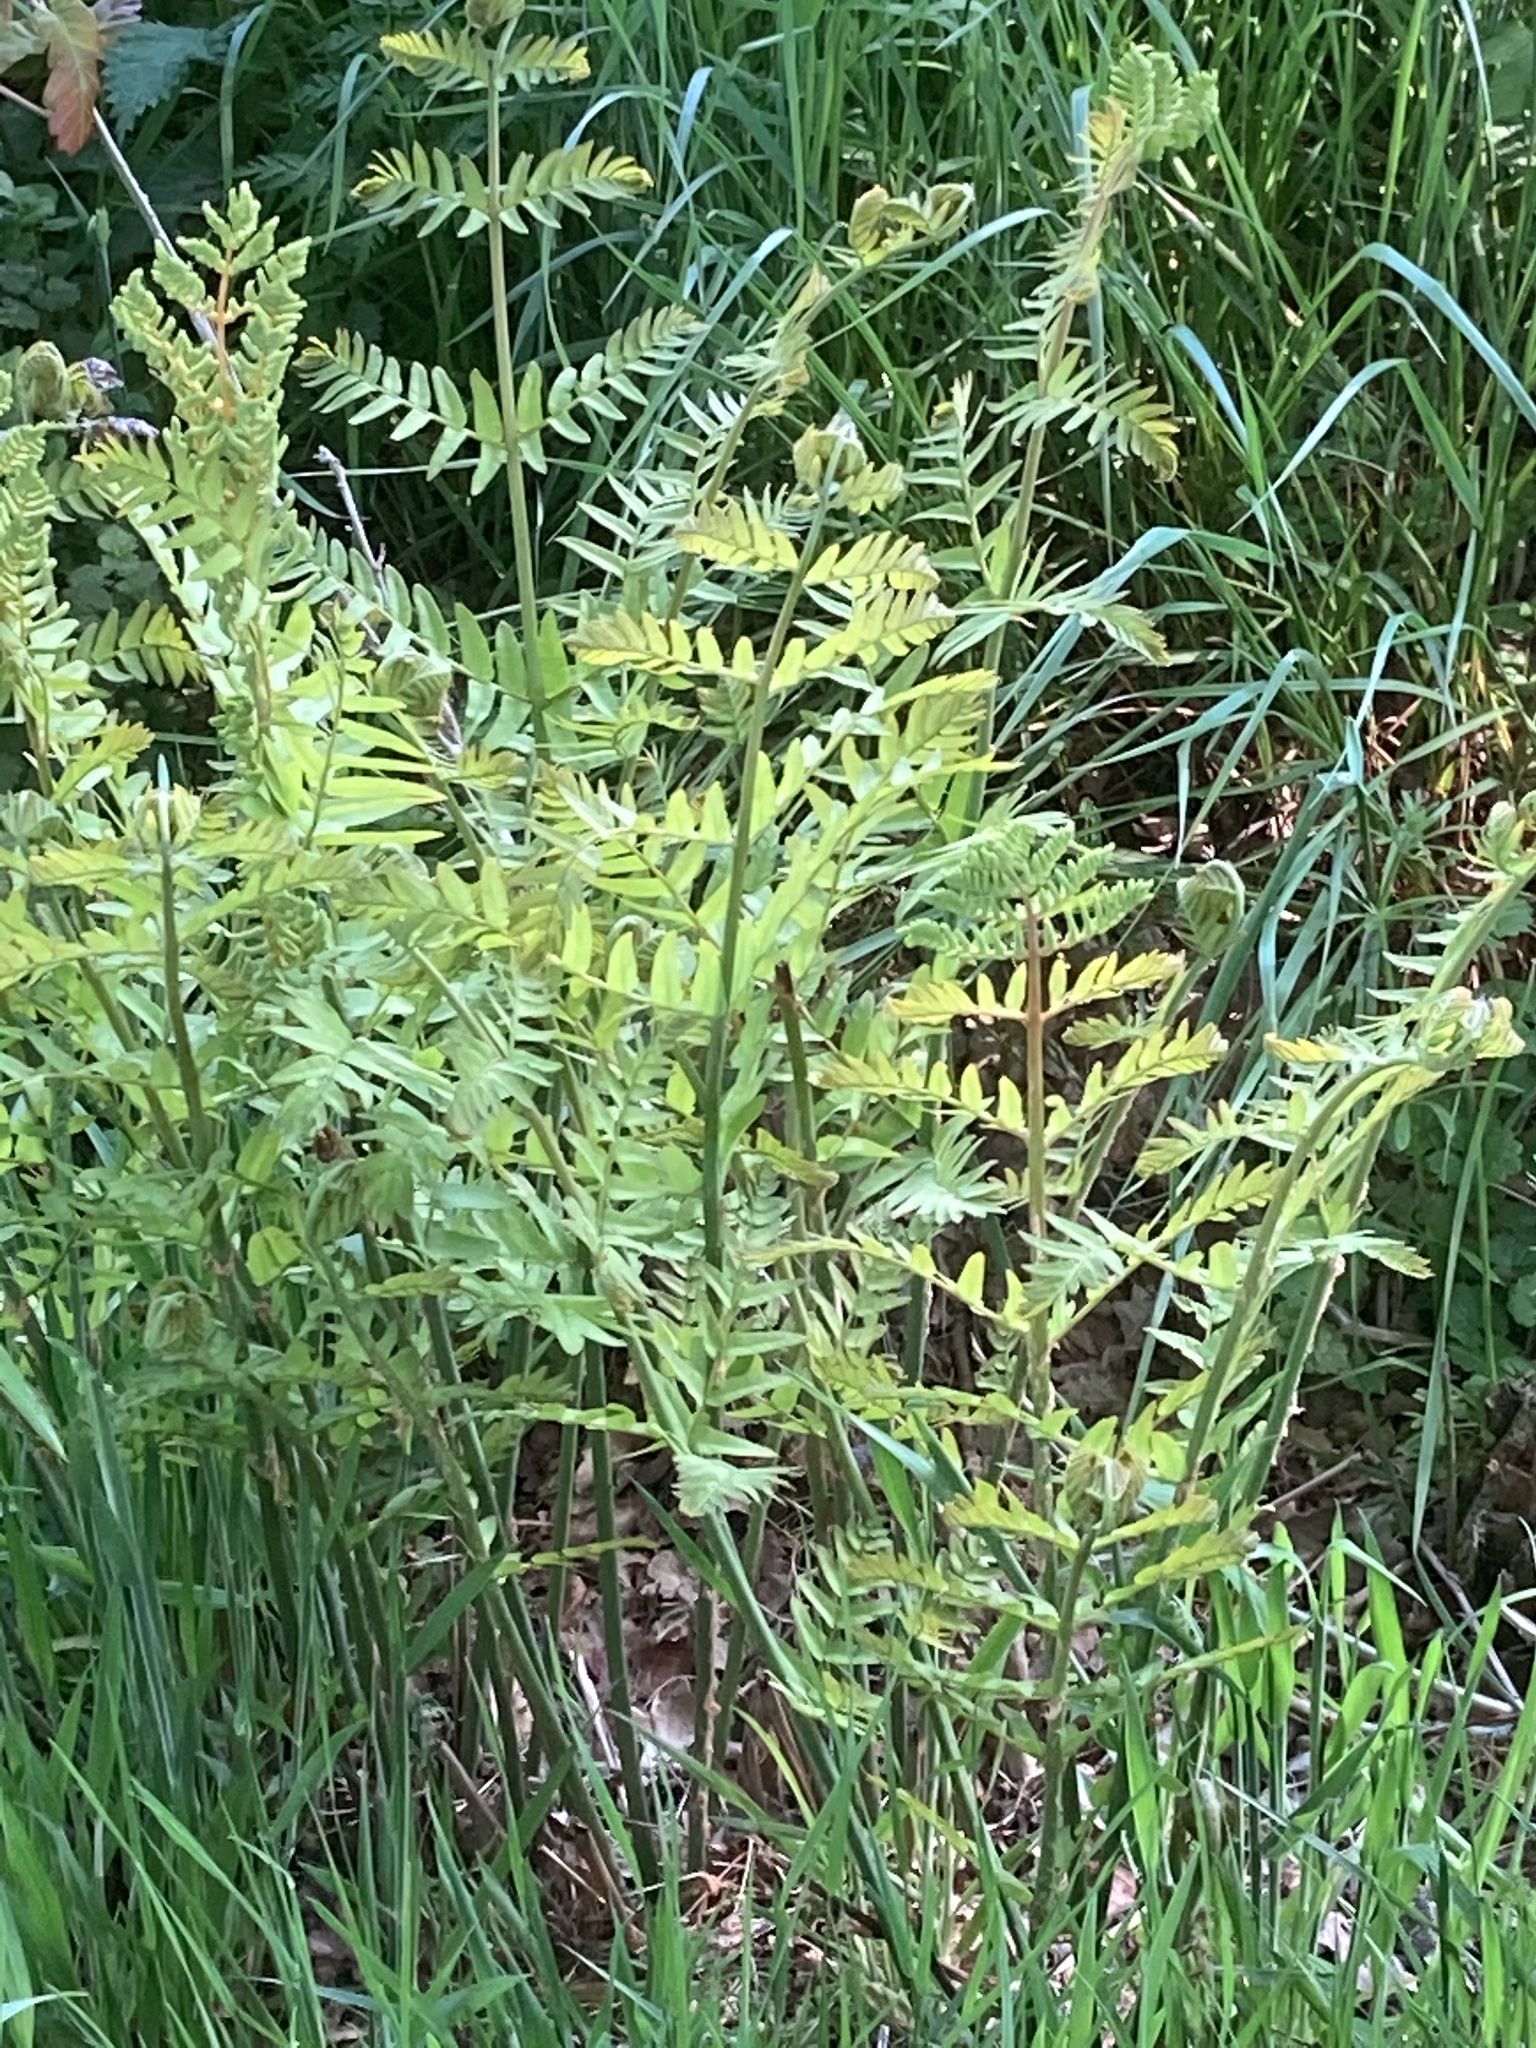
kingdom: Plantae
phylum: Tracheophyta
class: Polypodiopsida
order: Osmundales
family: Osmundaceae
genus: Osmunda
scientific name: Osmunda regalis
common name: Royal fern
